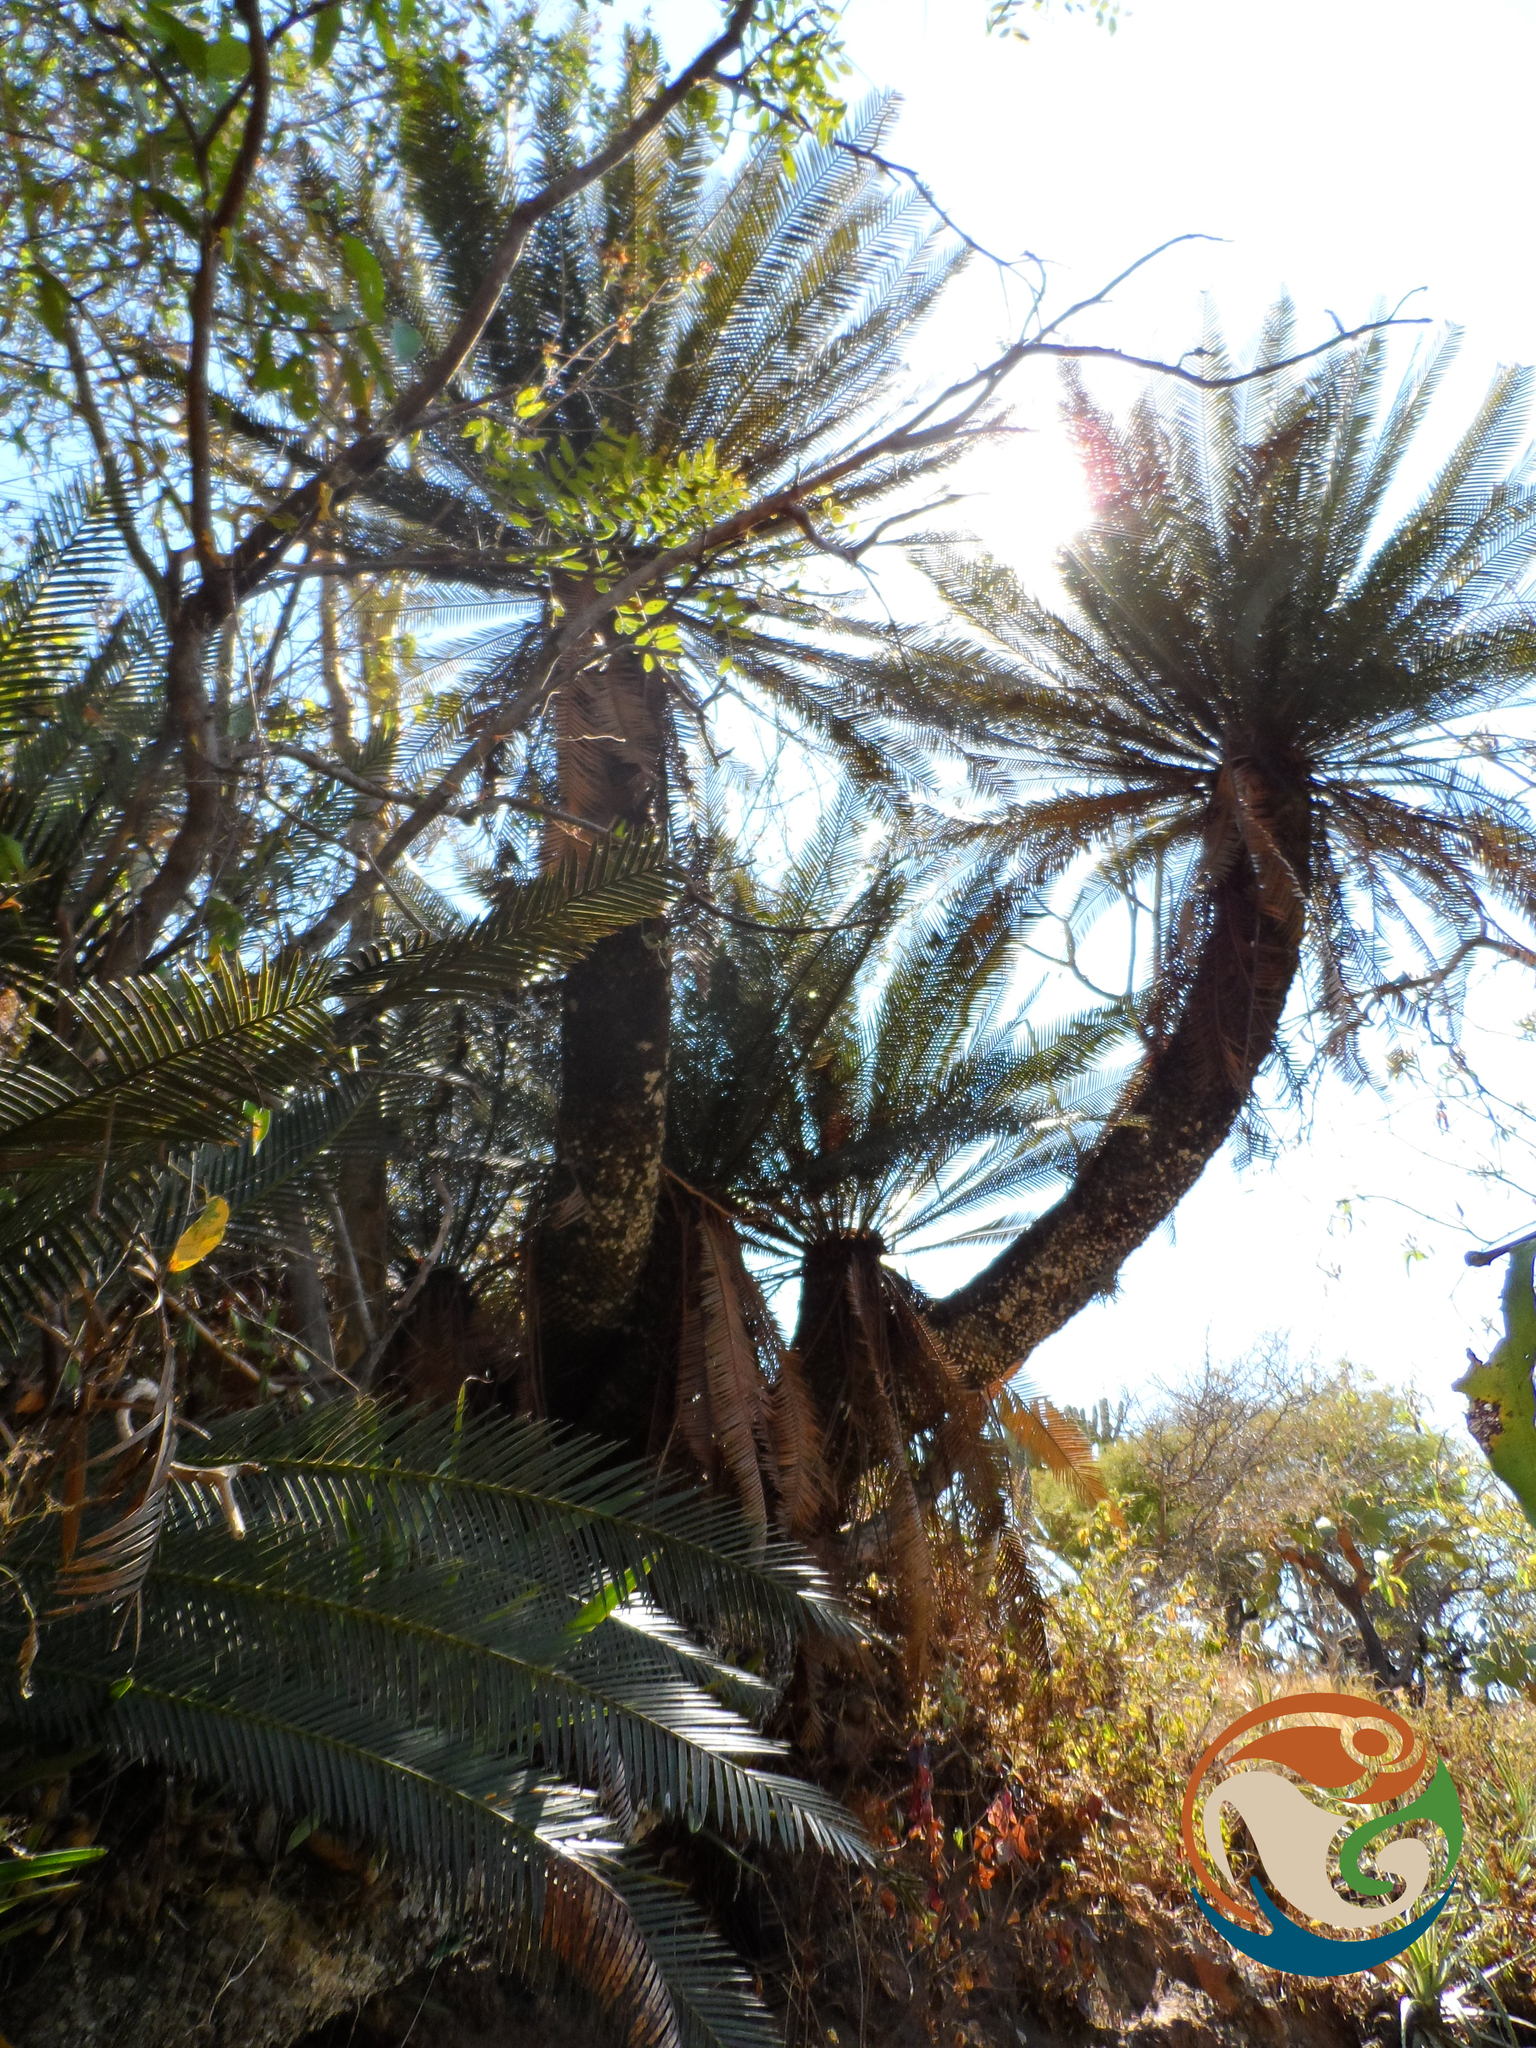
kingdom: Plantae
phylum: Tracheophyta
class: Cycadopsida
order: Cycadales
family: Zamiaceae
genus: Dioon
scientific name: Dioon planifolium
